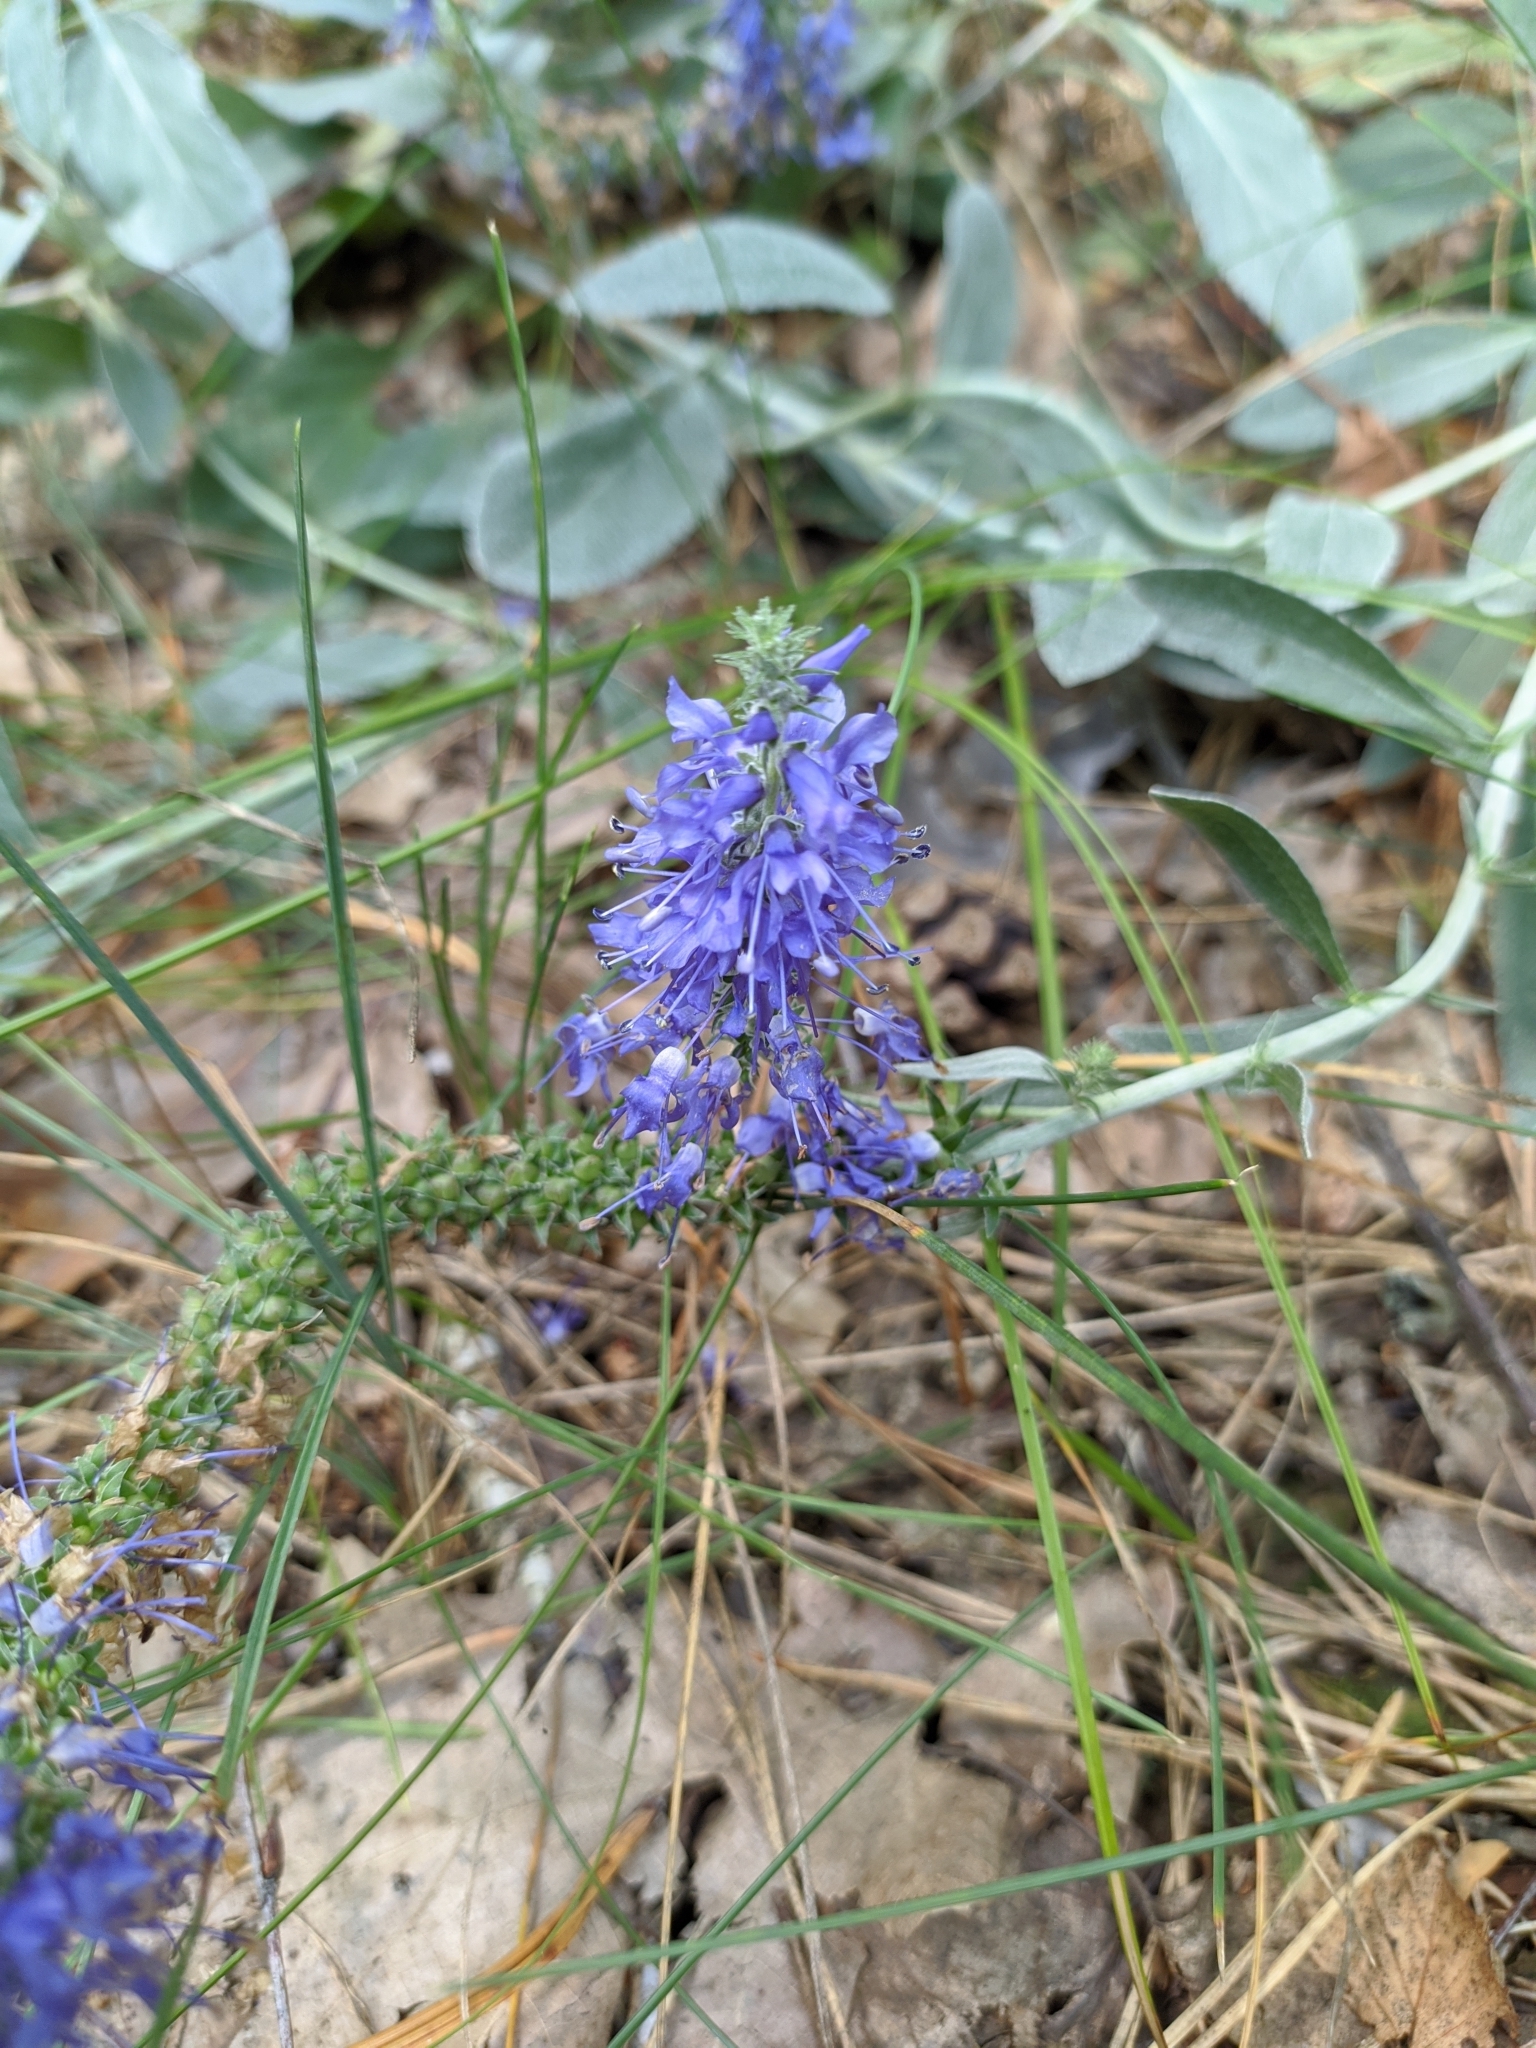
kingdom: Plantae
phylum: Tracheophyta
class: Magnoliopsida
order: Lamiales
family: Plantaginaceae
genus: Veronica
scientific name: Veronica incana
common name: Silver speedwell
